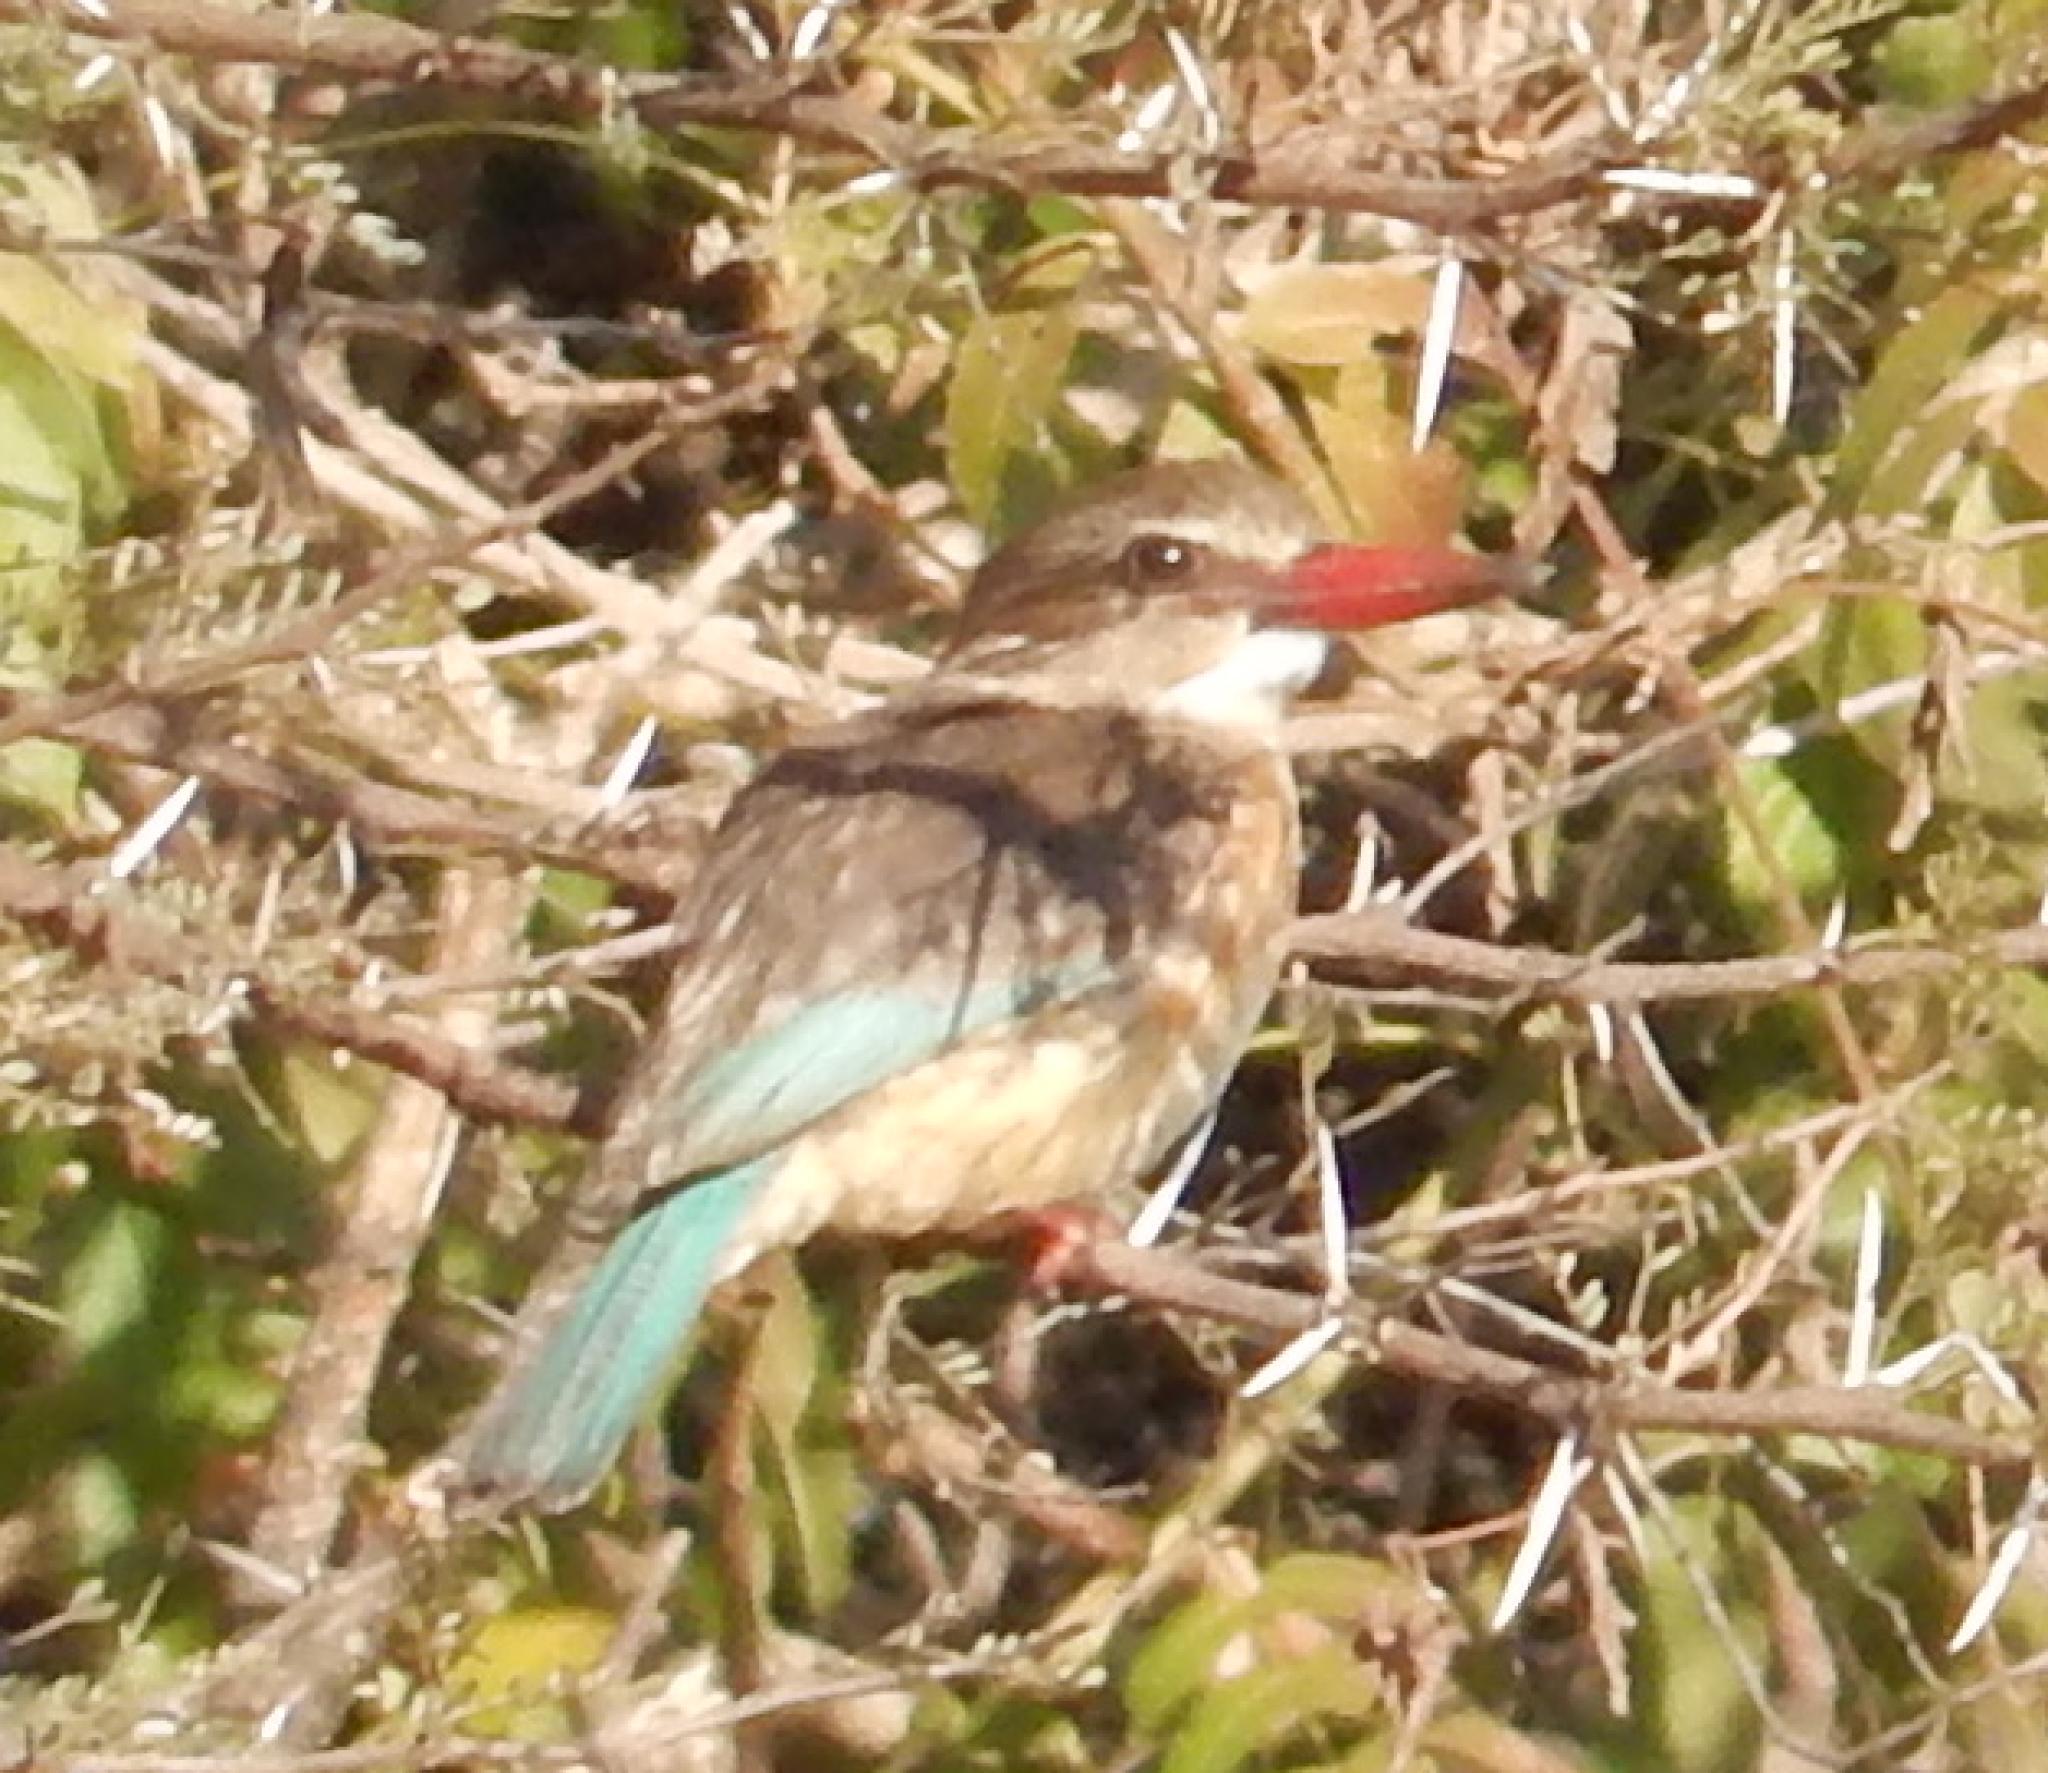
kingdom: Animalia
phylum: Chordata
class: Aves
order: Coraciiformes
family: Alcedinidae
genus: Halcyon
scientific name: Halcyon albiventris
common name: Brown-hooded kingfisher
